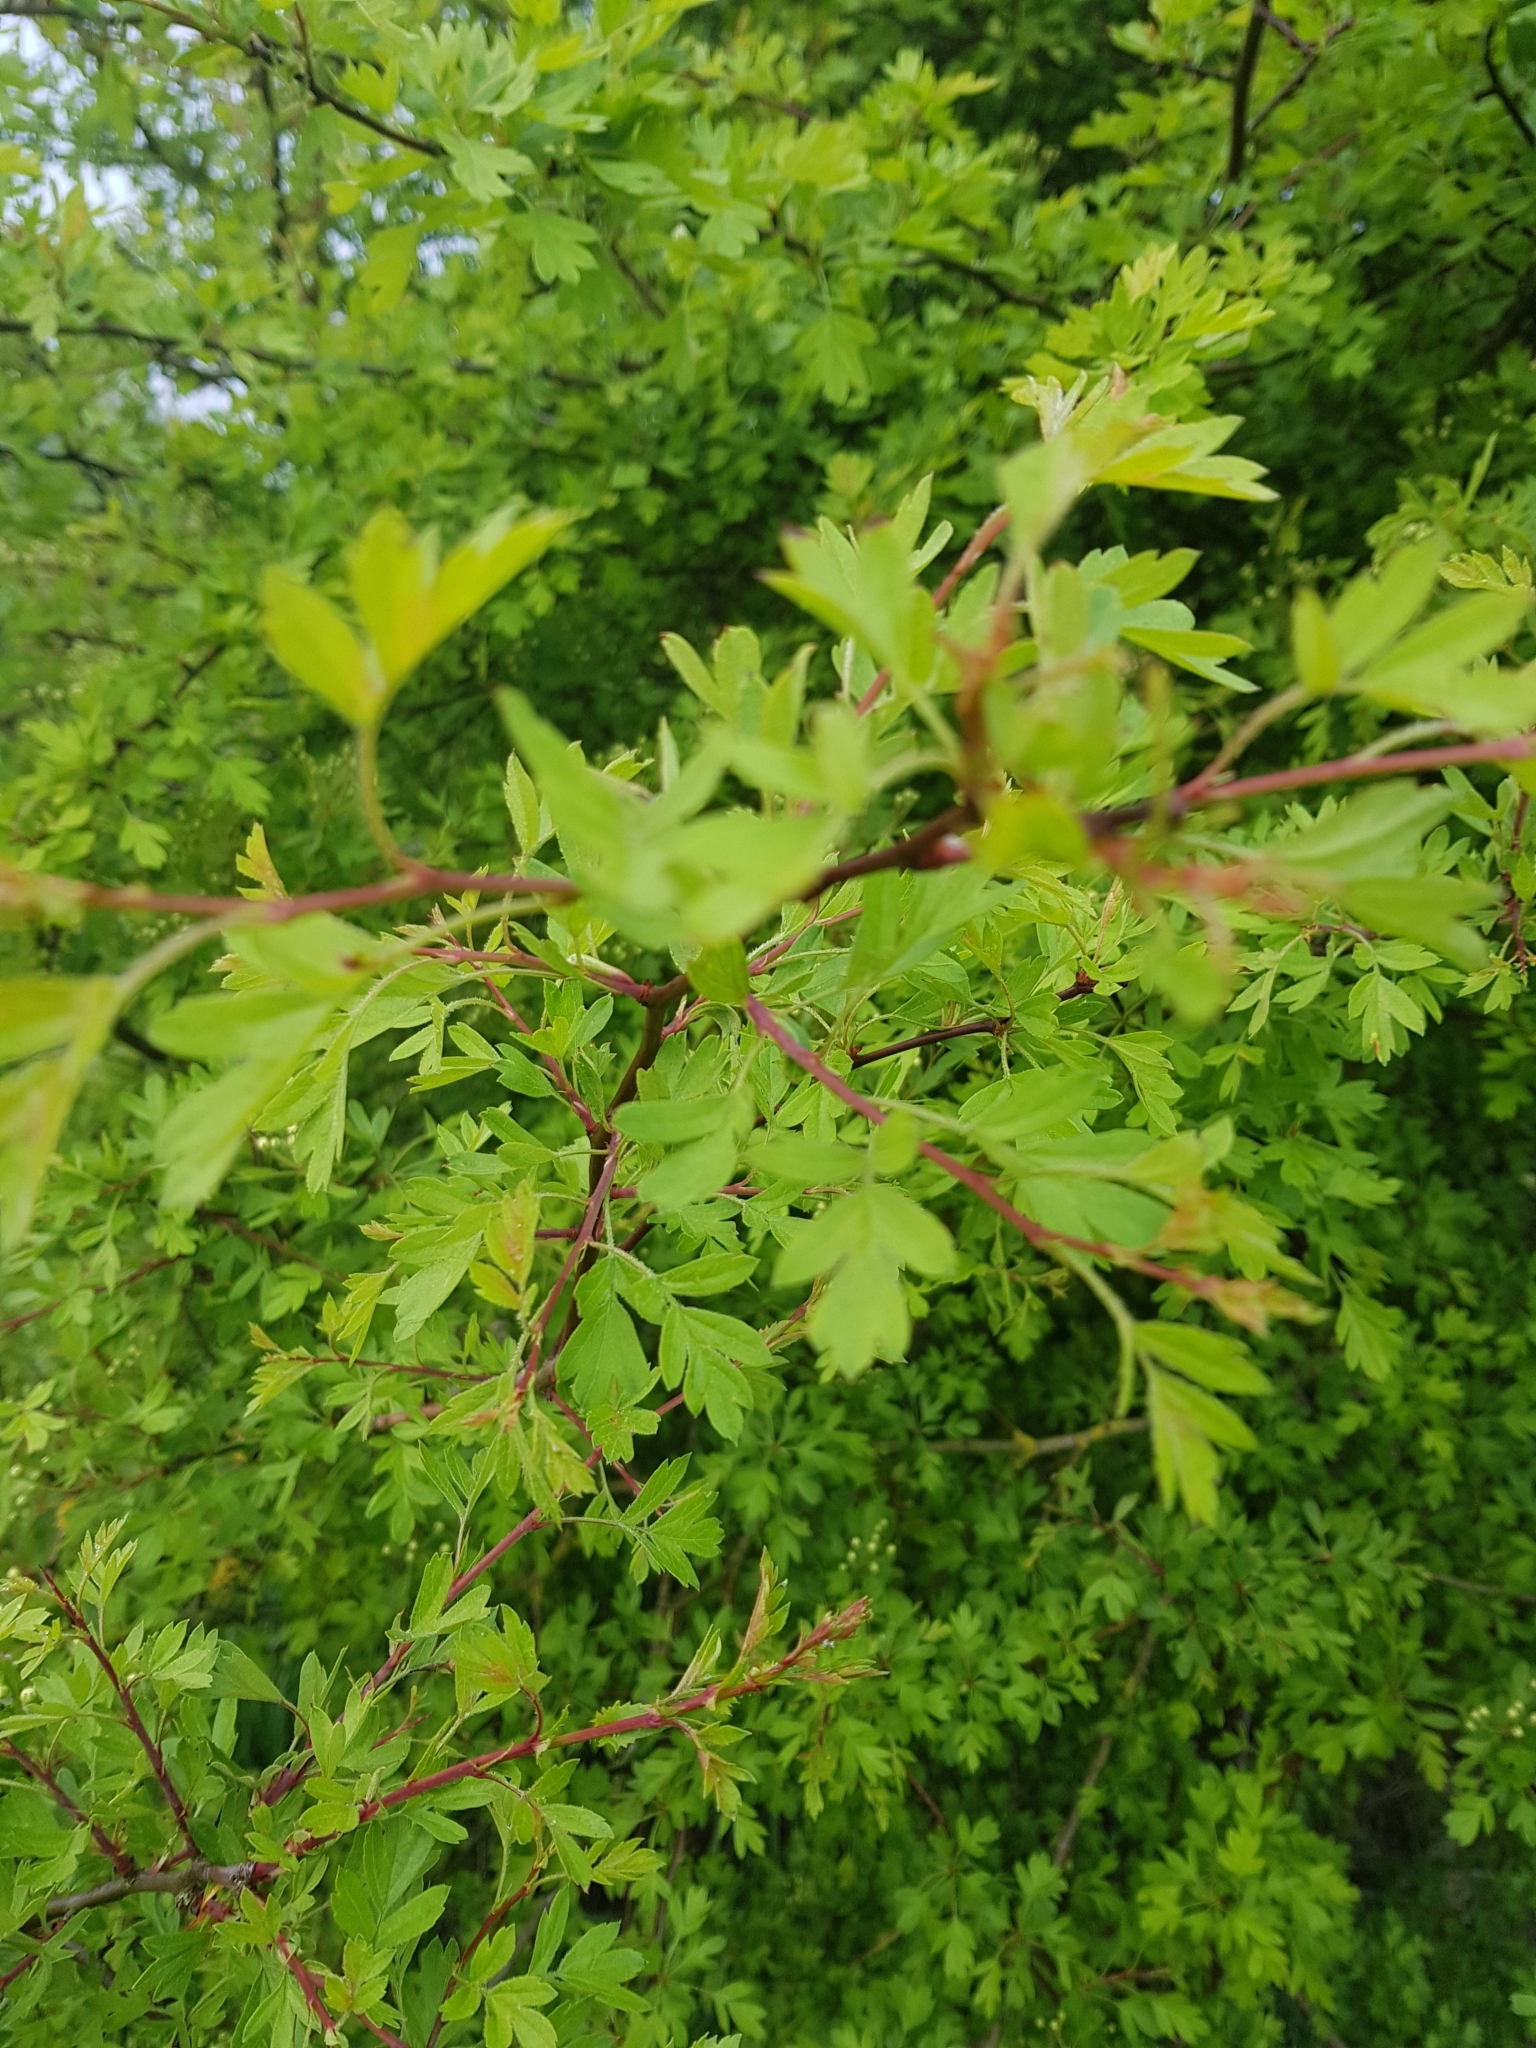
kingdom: Plantae
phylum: Tracheophyta
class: Magnoliopsida
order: Rosales
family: Rosaceae
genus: Crataegus
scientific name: Crataegus monogyna
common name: Hawthorn
